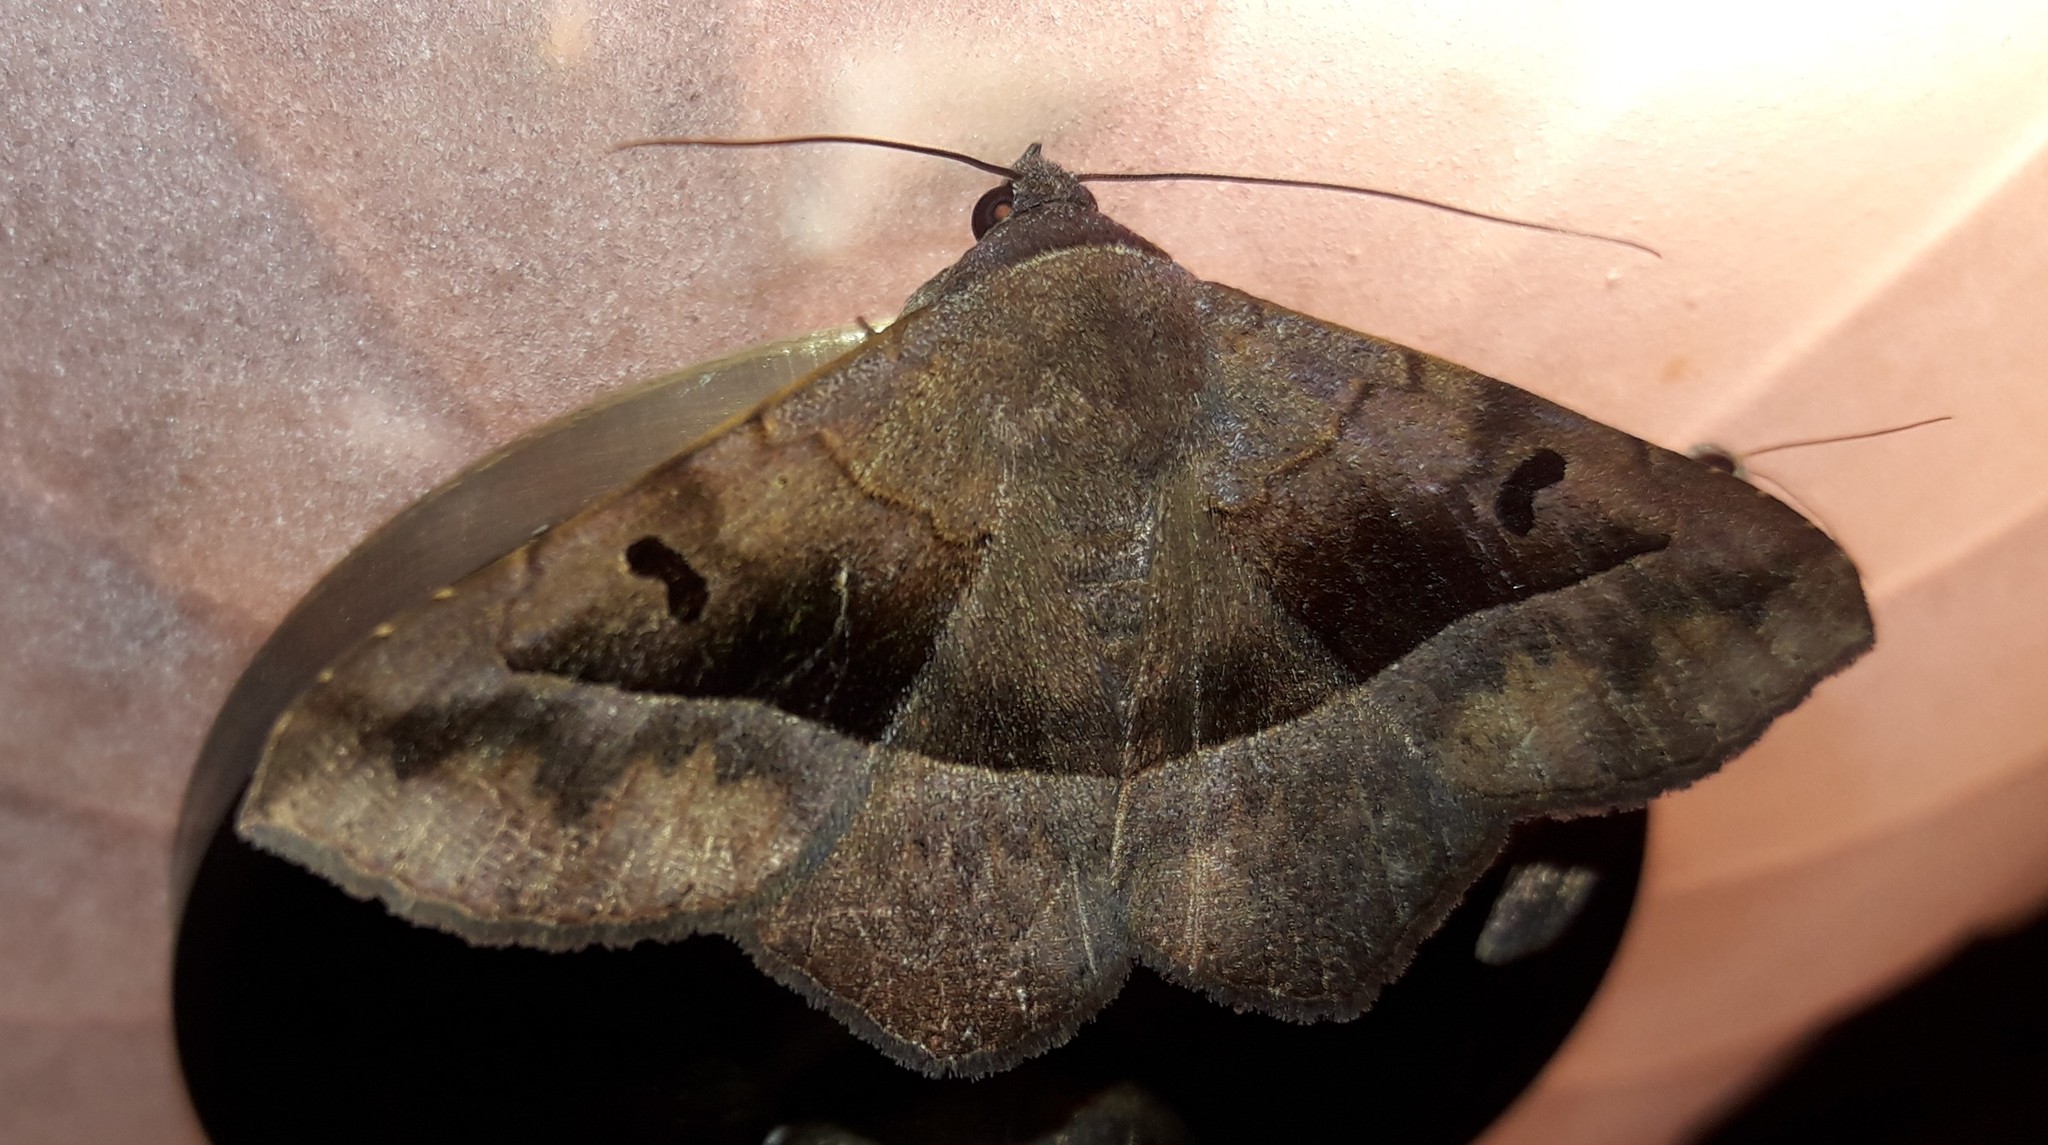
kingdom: Animalia
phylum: Arthropoda
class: Insecta
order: Lepidoptera
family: Erebidae
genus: Epidromia
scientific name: Epidromia rotundata
